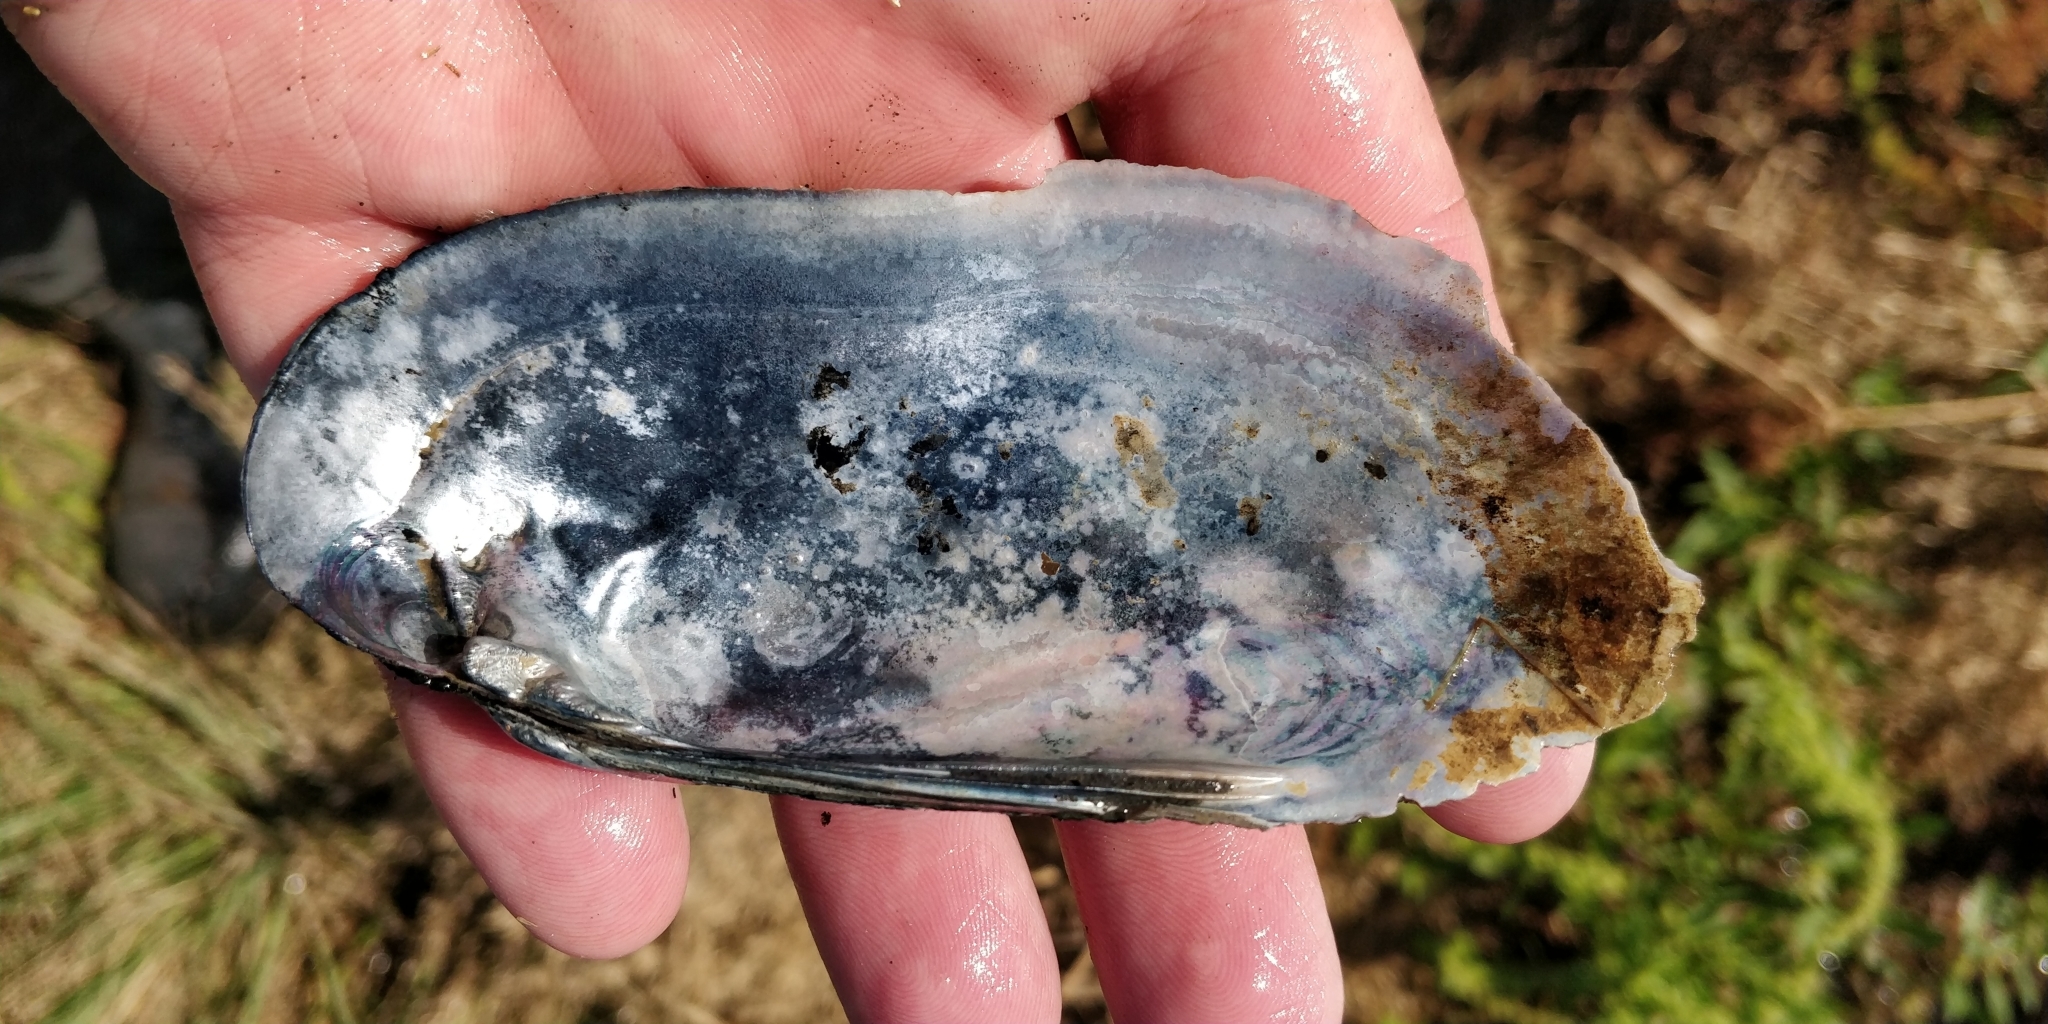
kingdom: Animalia
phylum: Mollusca
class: Bivalvia
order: Unionida
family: Unionidae
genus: Ligumia
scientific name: Ligumia recta
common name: Black sandshell
